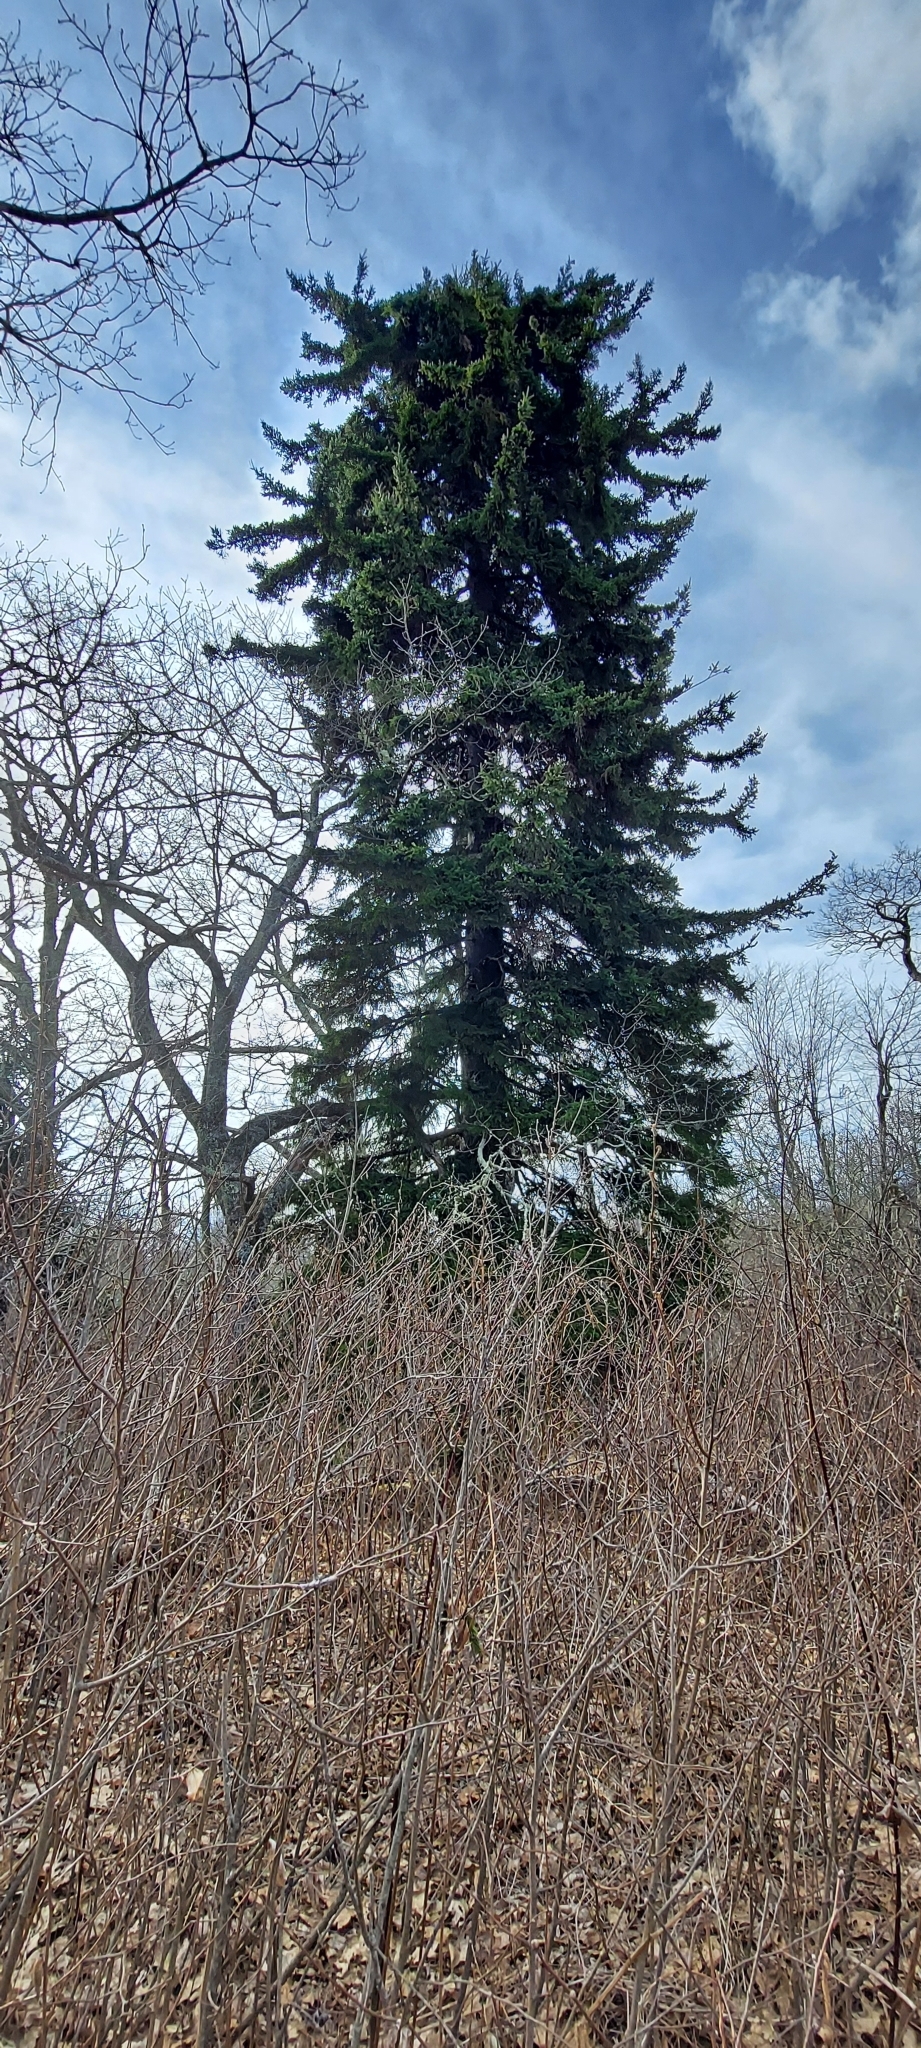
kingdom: Plantae
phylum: Tracheophyta
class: Pinopsida
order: Pinales
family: Pinaceae
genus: Picea
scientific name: Picea rubens
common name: Red spruce
